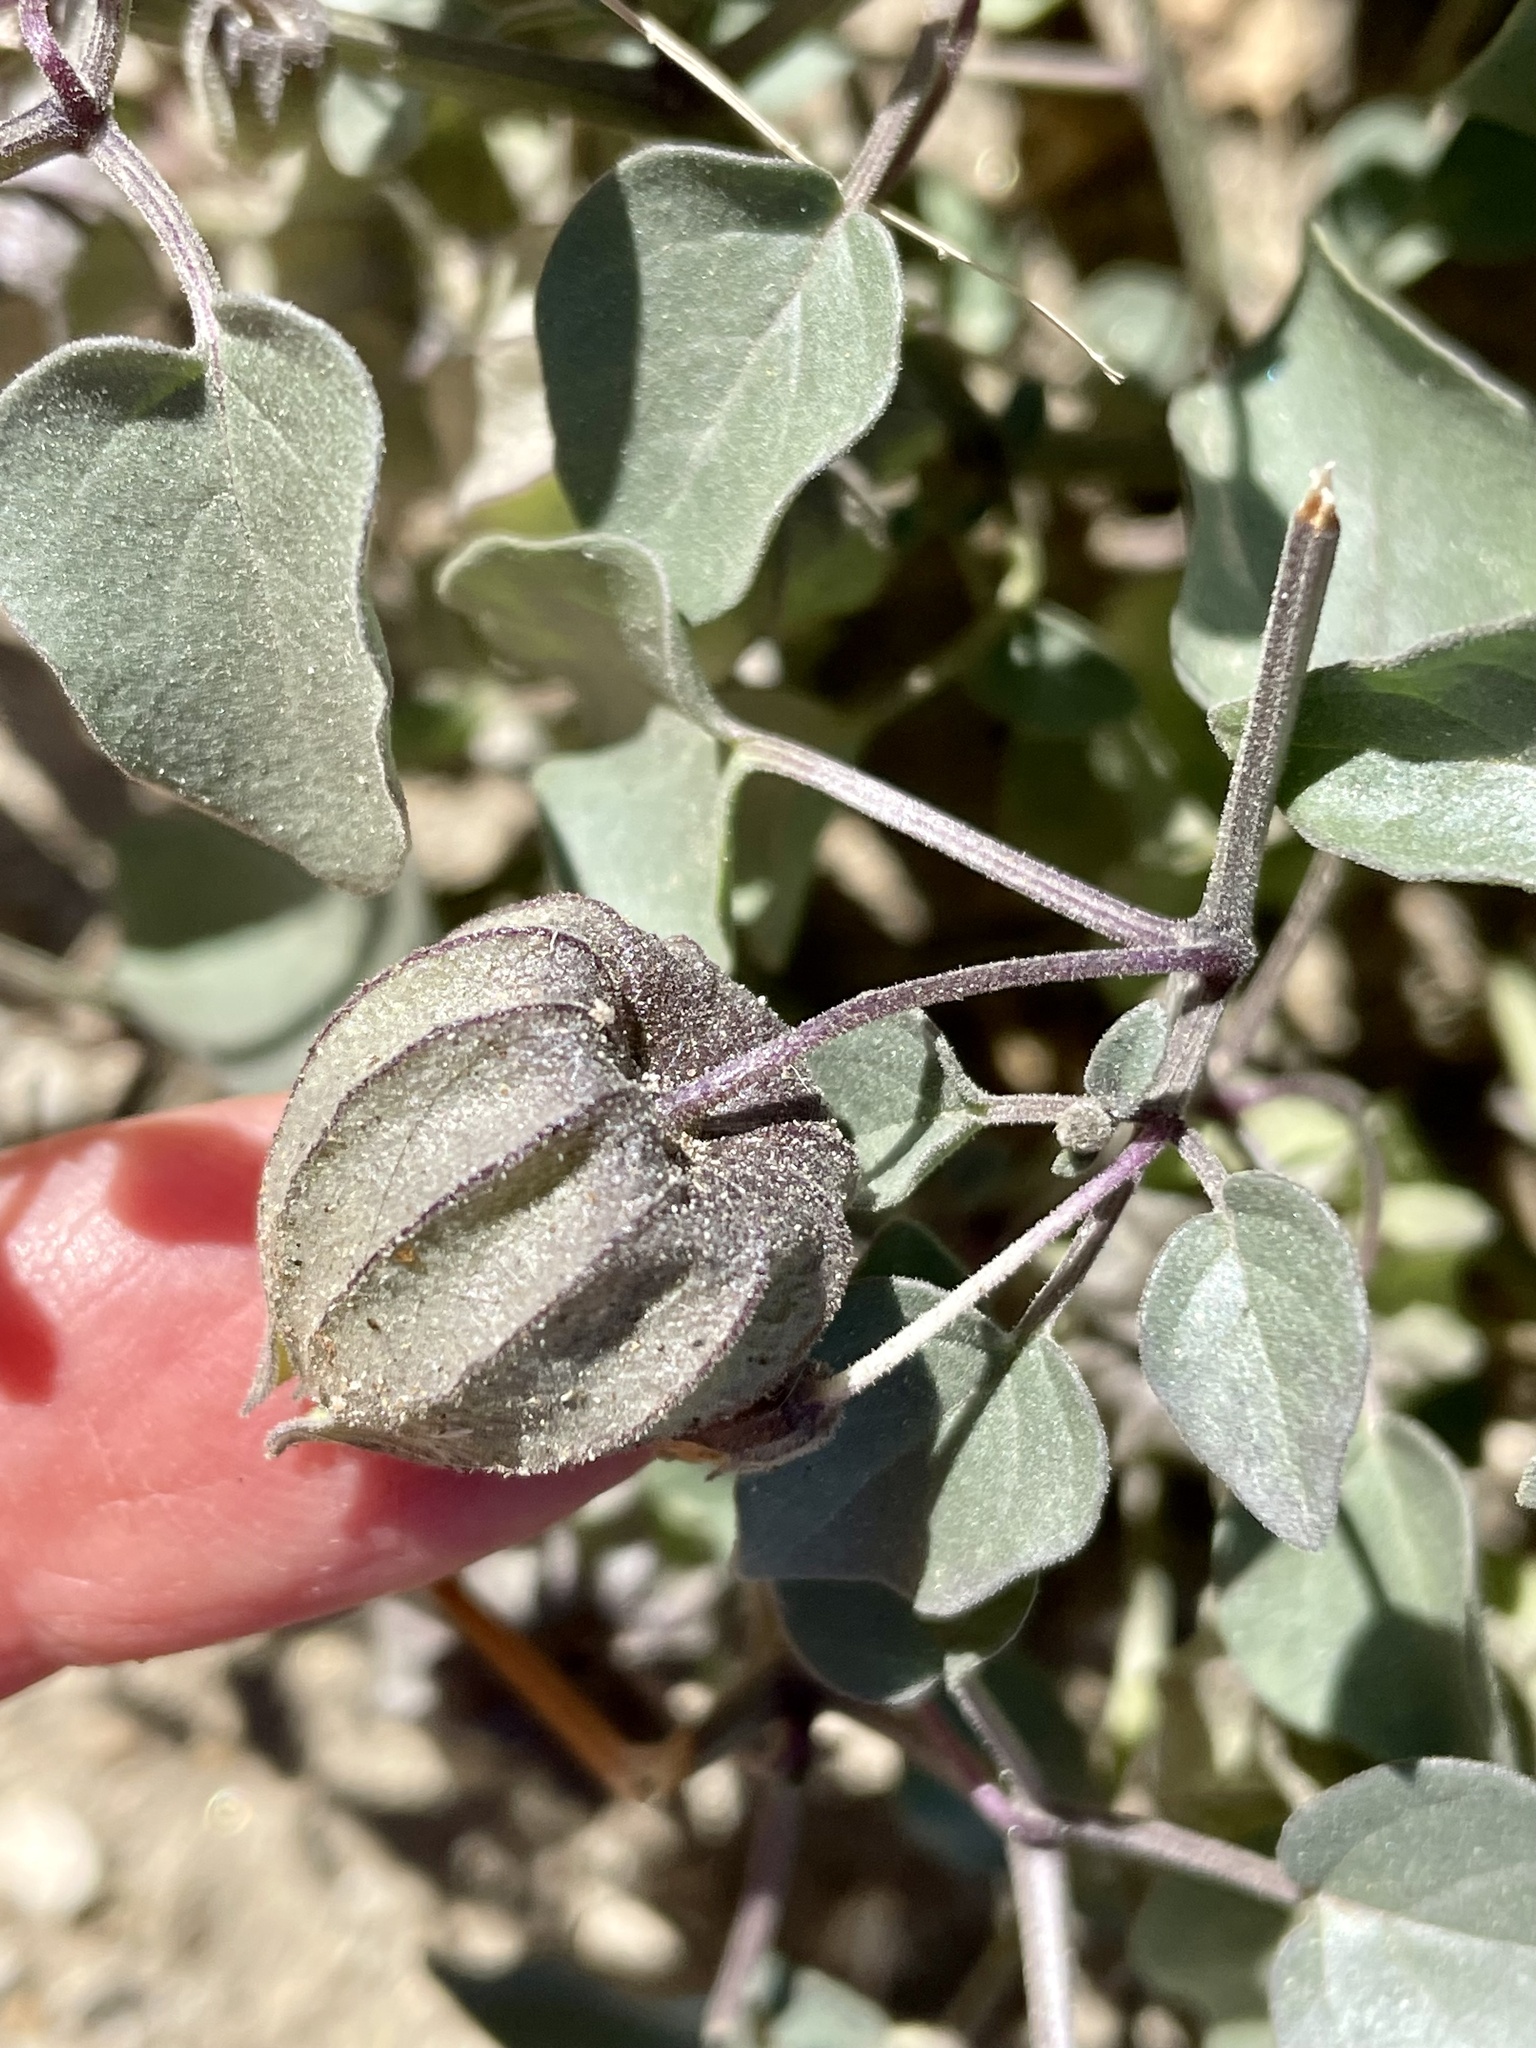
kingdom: Plantae
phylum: Tracheophyta
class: Magnoliopsida
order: Solanales
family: Solanaceae
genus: Physalis
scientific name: Physalis crassifolia
